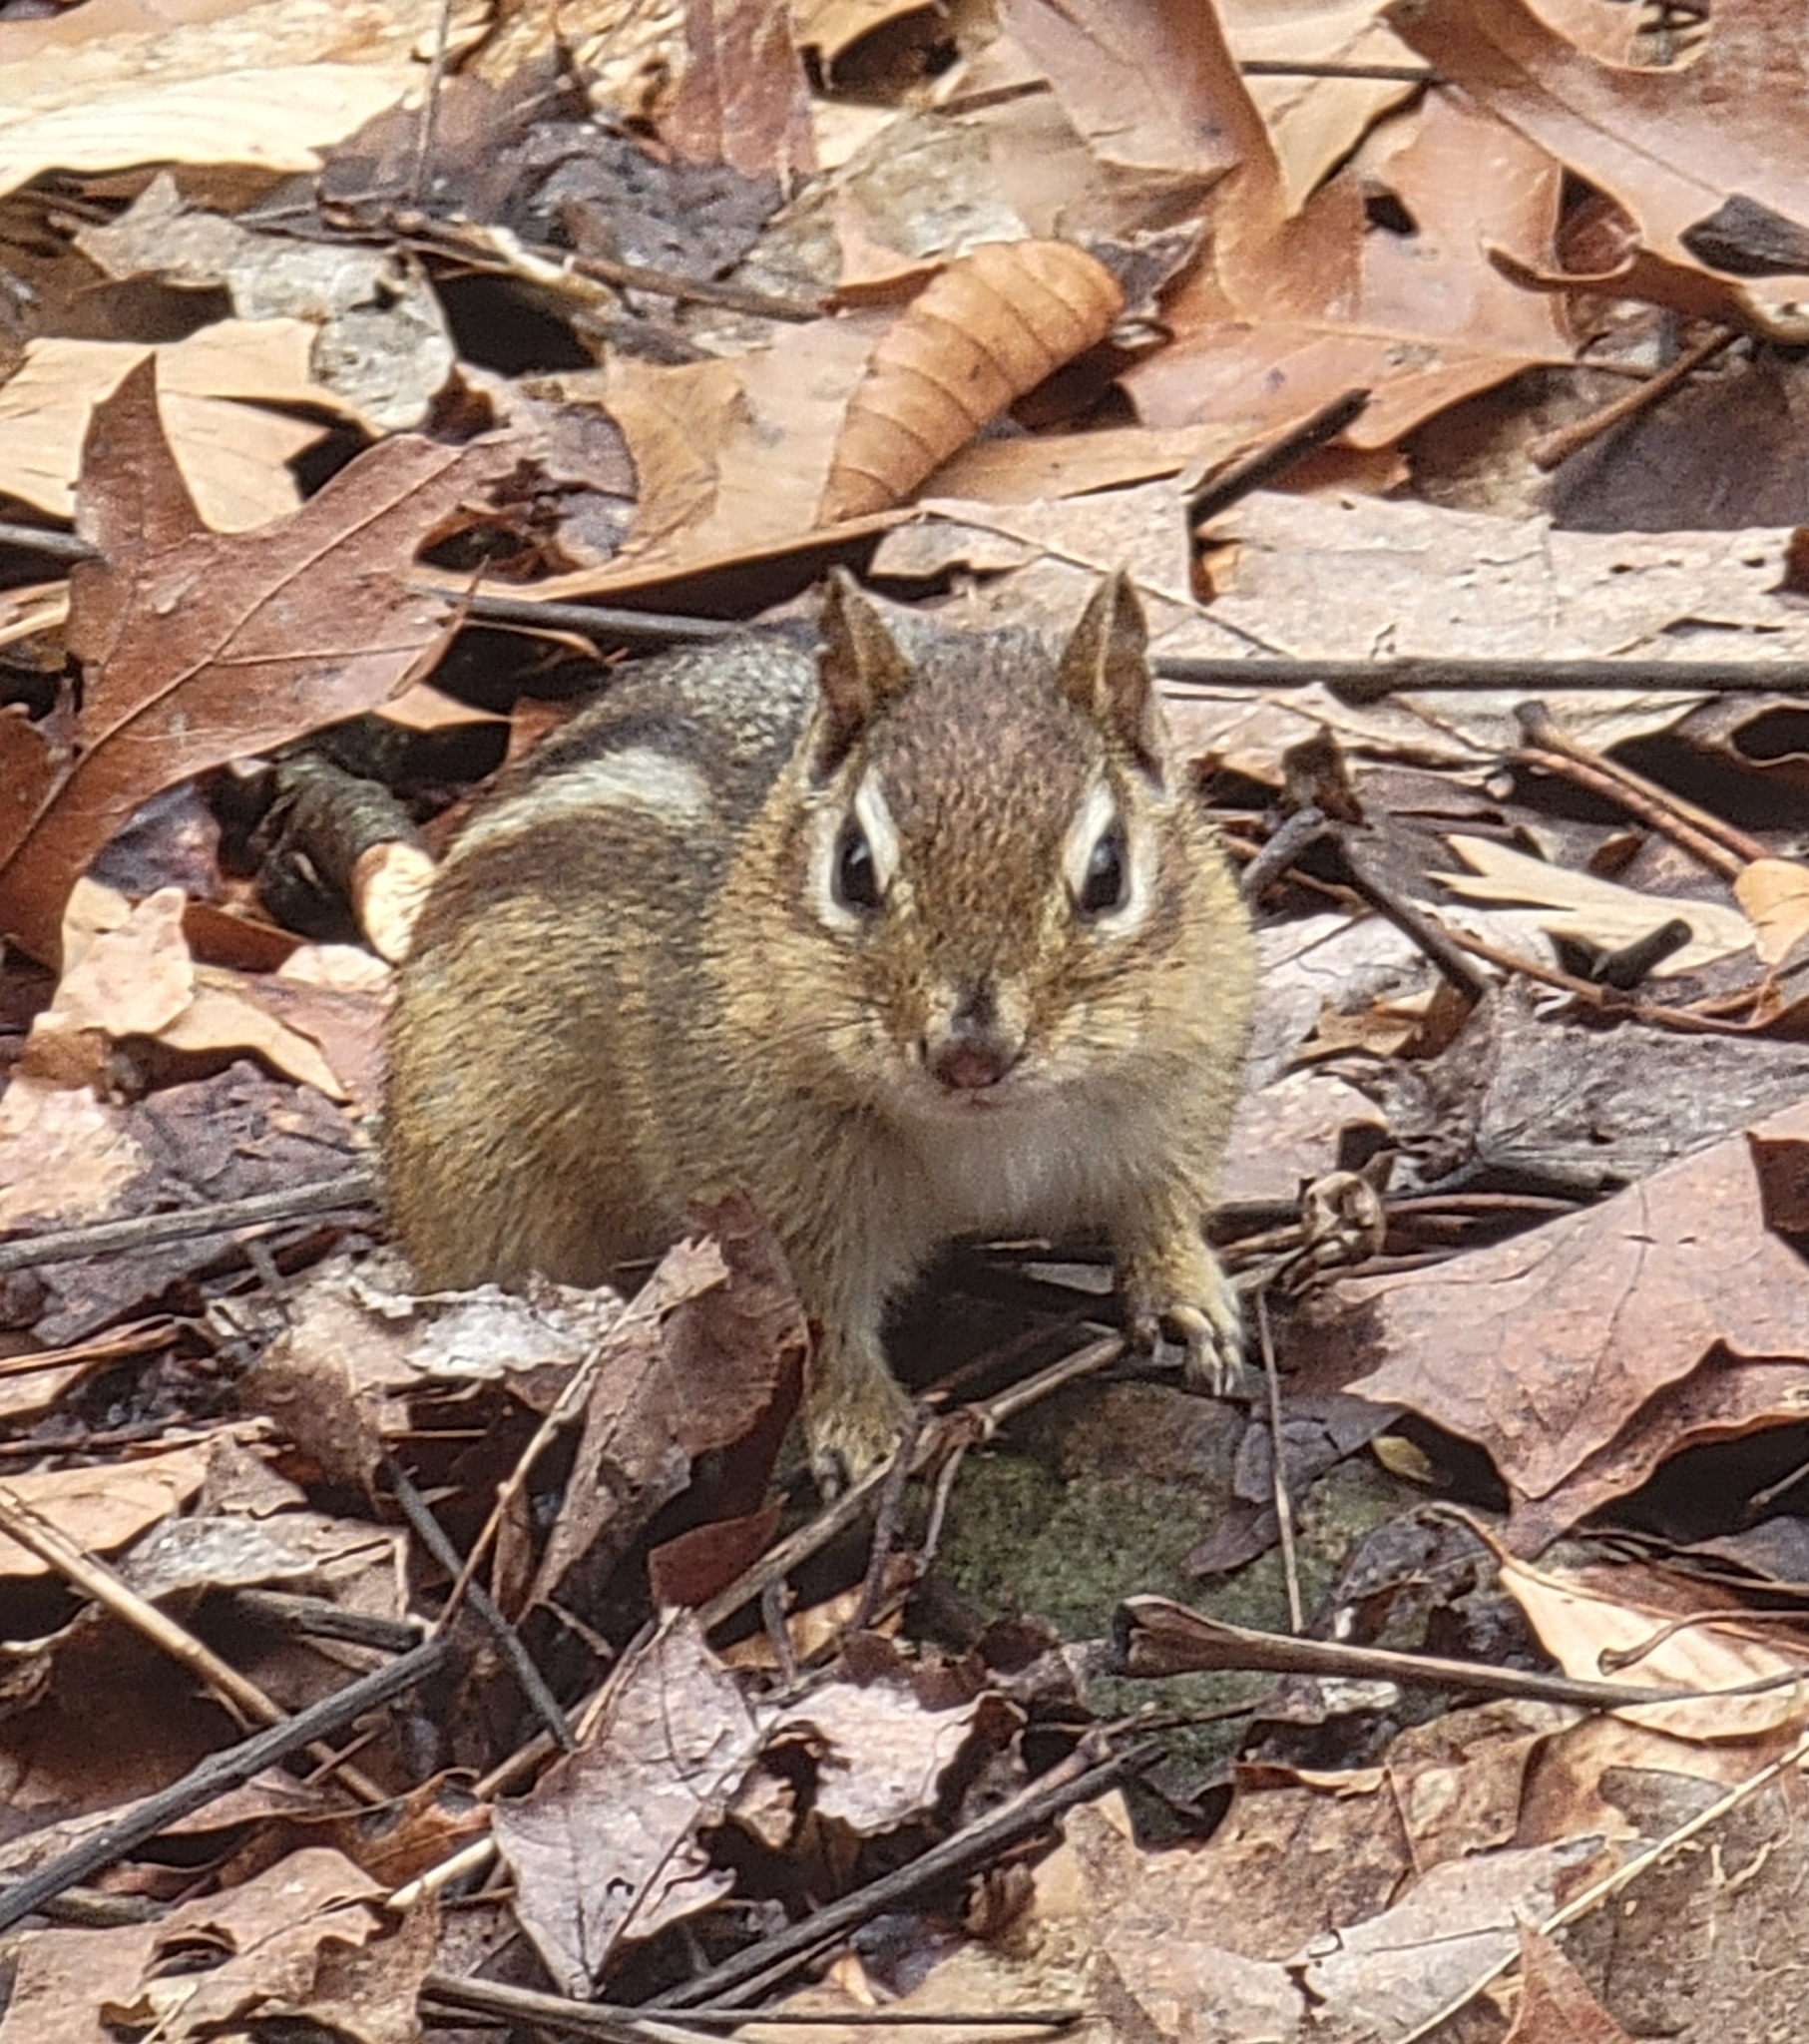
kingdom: Animalia
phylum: Chordata
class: Mammalia
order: Rodentia
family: Sciuridae
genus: Tamias
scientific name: Tamias striatus
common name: Eastern chipmunk
